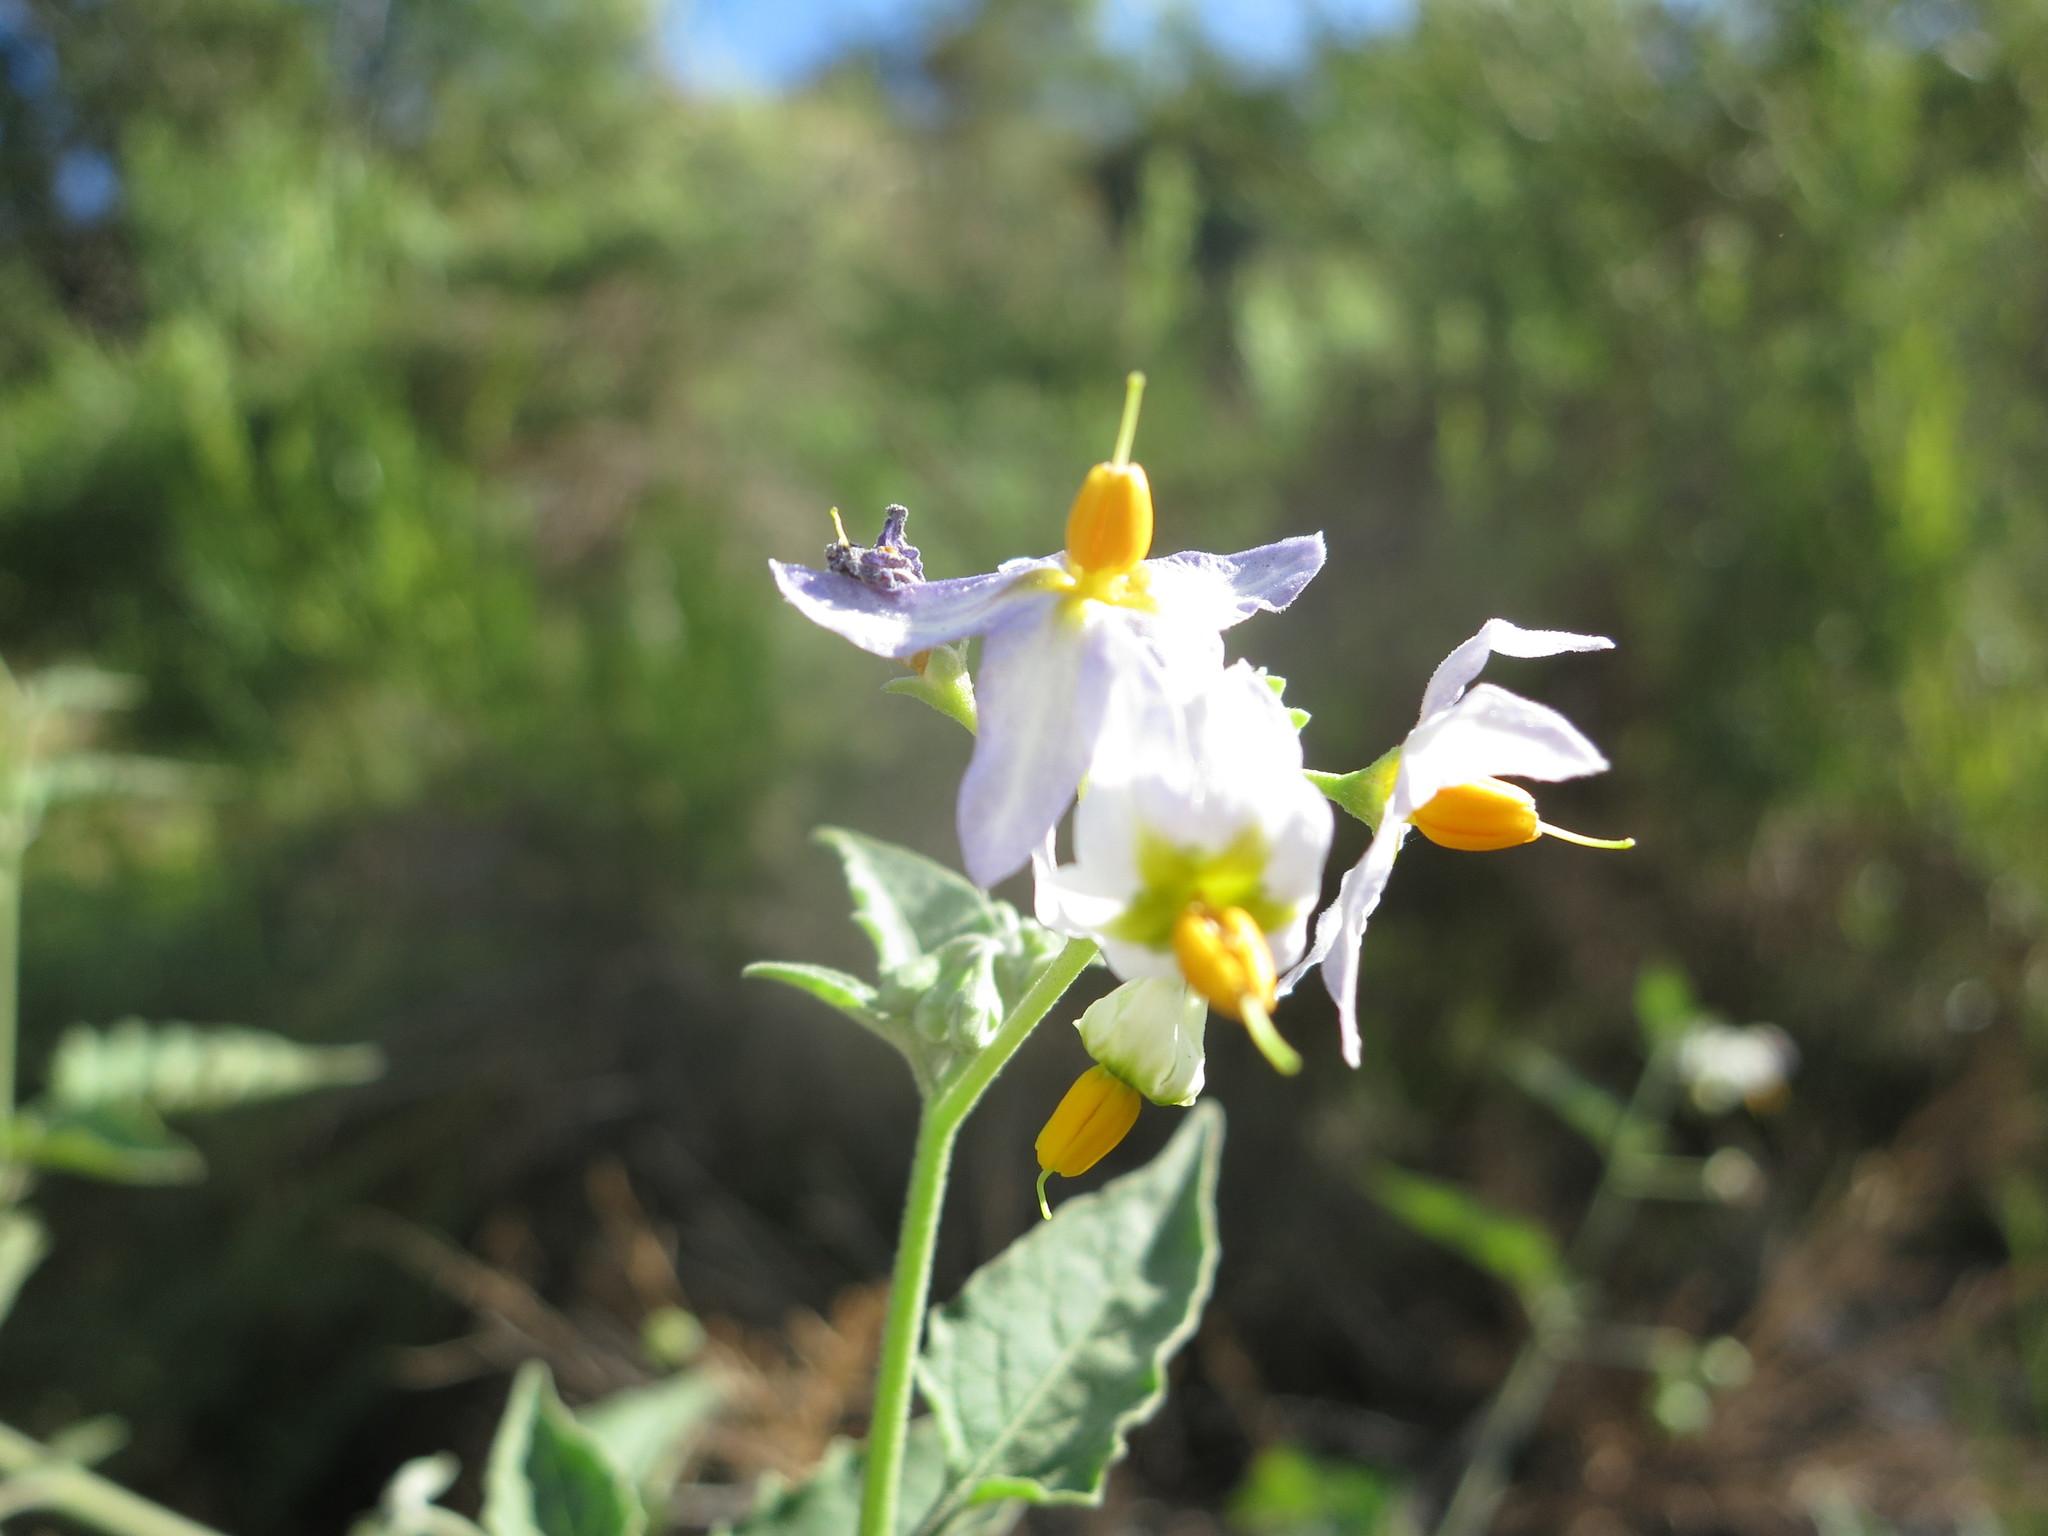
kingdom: Plantae
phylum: Tracheophyta
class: Magnoliopsida
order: Solanales
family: Solanaceae
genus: Solanum
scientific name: Solanum douglasii
